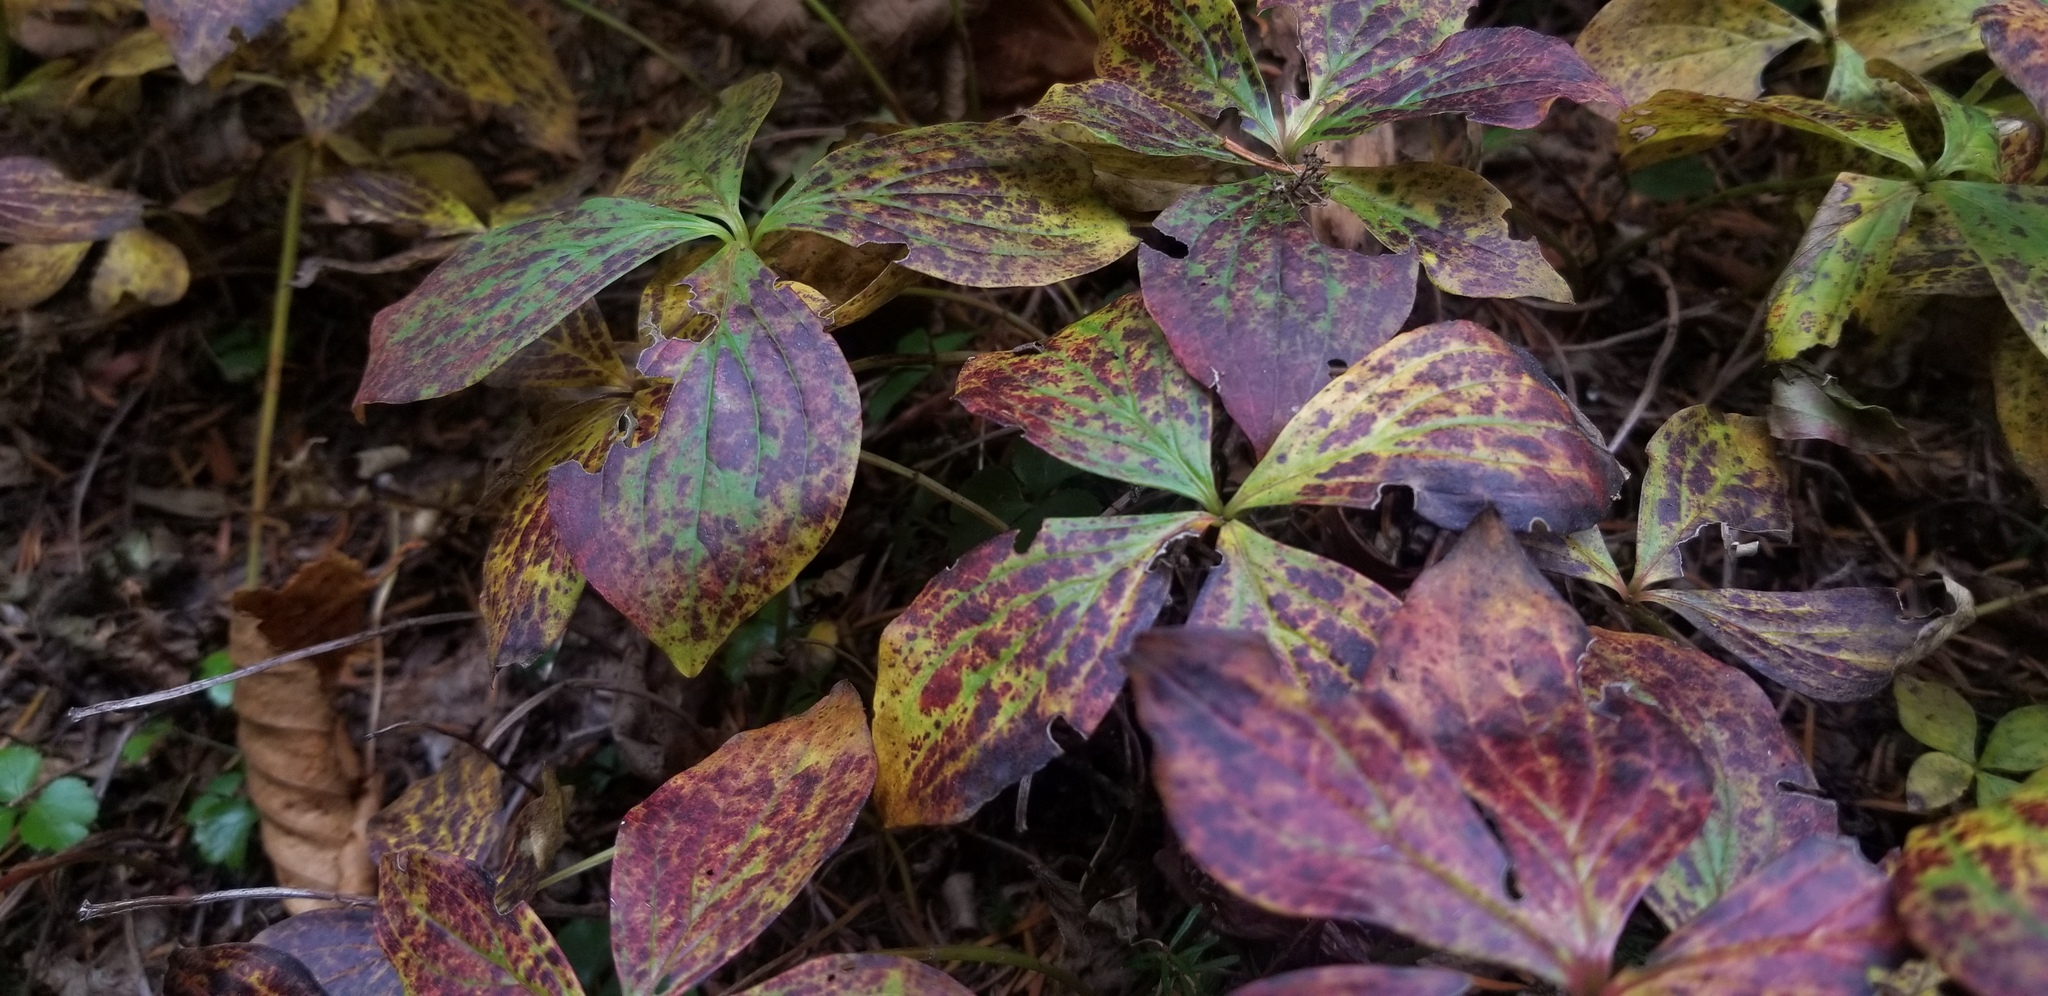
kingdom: Plantae
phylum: Tracheophyta
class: Magnoliopsida
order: Cornales
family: Cornaceae
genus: Cornus
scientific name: Cornus canadensis
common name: Creeping dogwood
